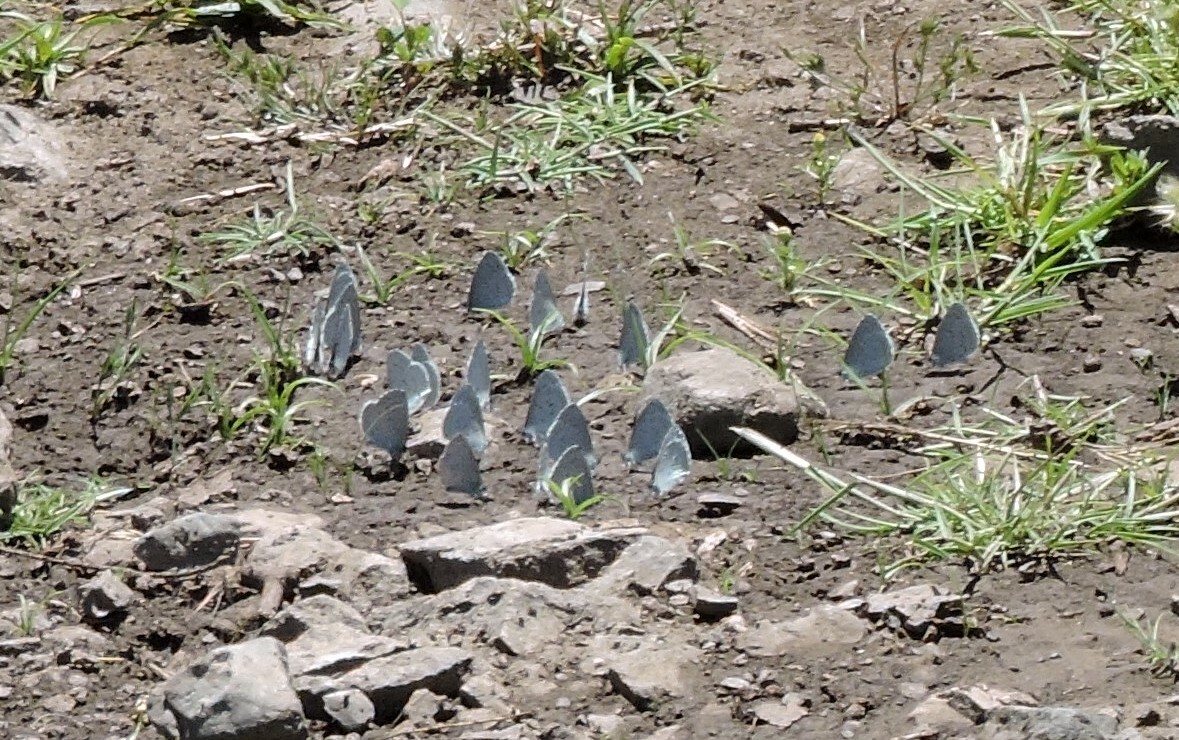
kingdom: Animalia
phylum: Arthropoda
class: Insecta
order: Lepidoptera
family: Lycaenidae
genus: Celastrina
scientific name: Celastrina ladon
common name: Spring azure
